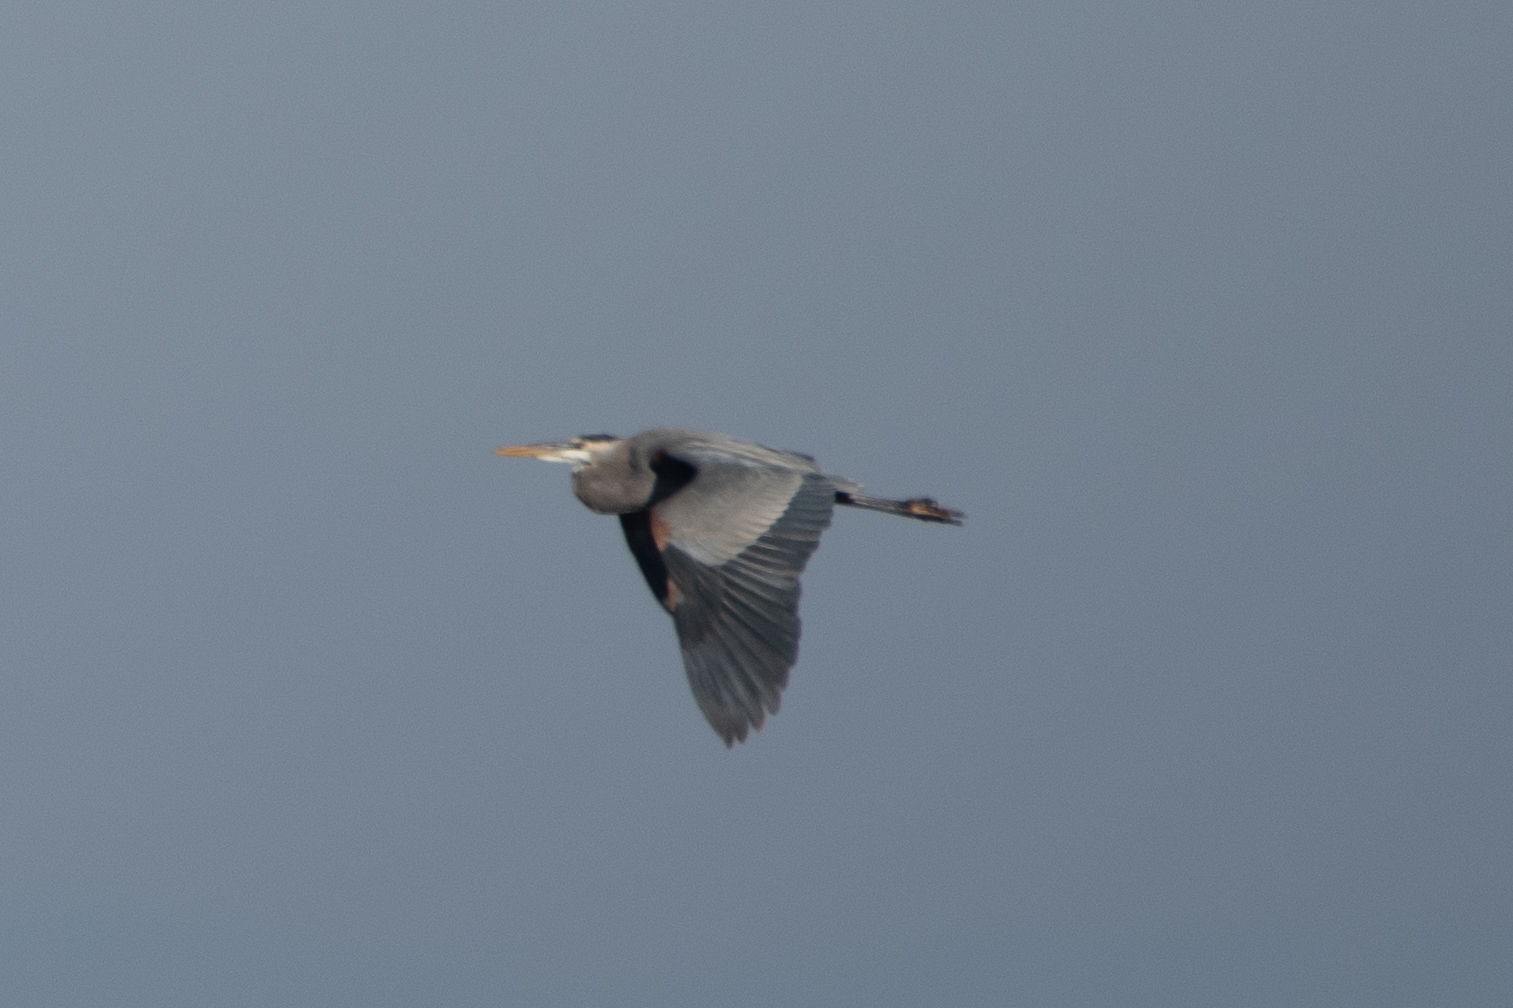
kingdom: Animalia
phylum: Chordata
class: Aves
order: Pelecaniformes
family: Ardeidae
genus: Ardea
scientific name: Ardea herodias
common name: Great blue heron
